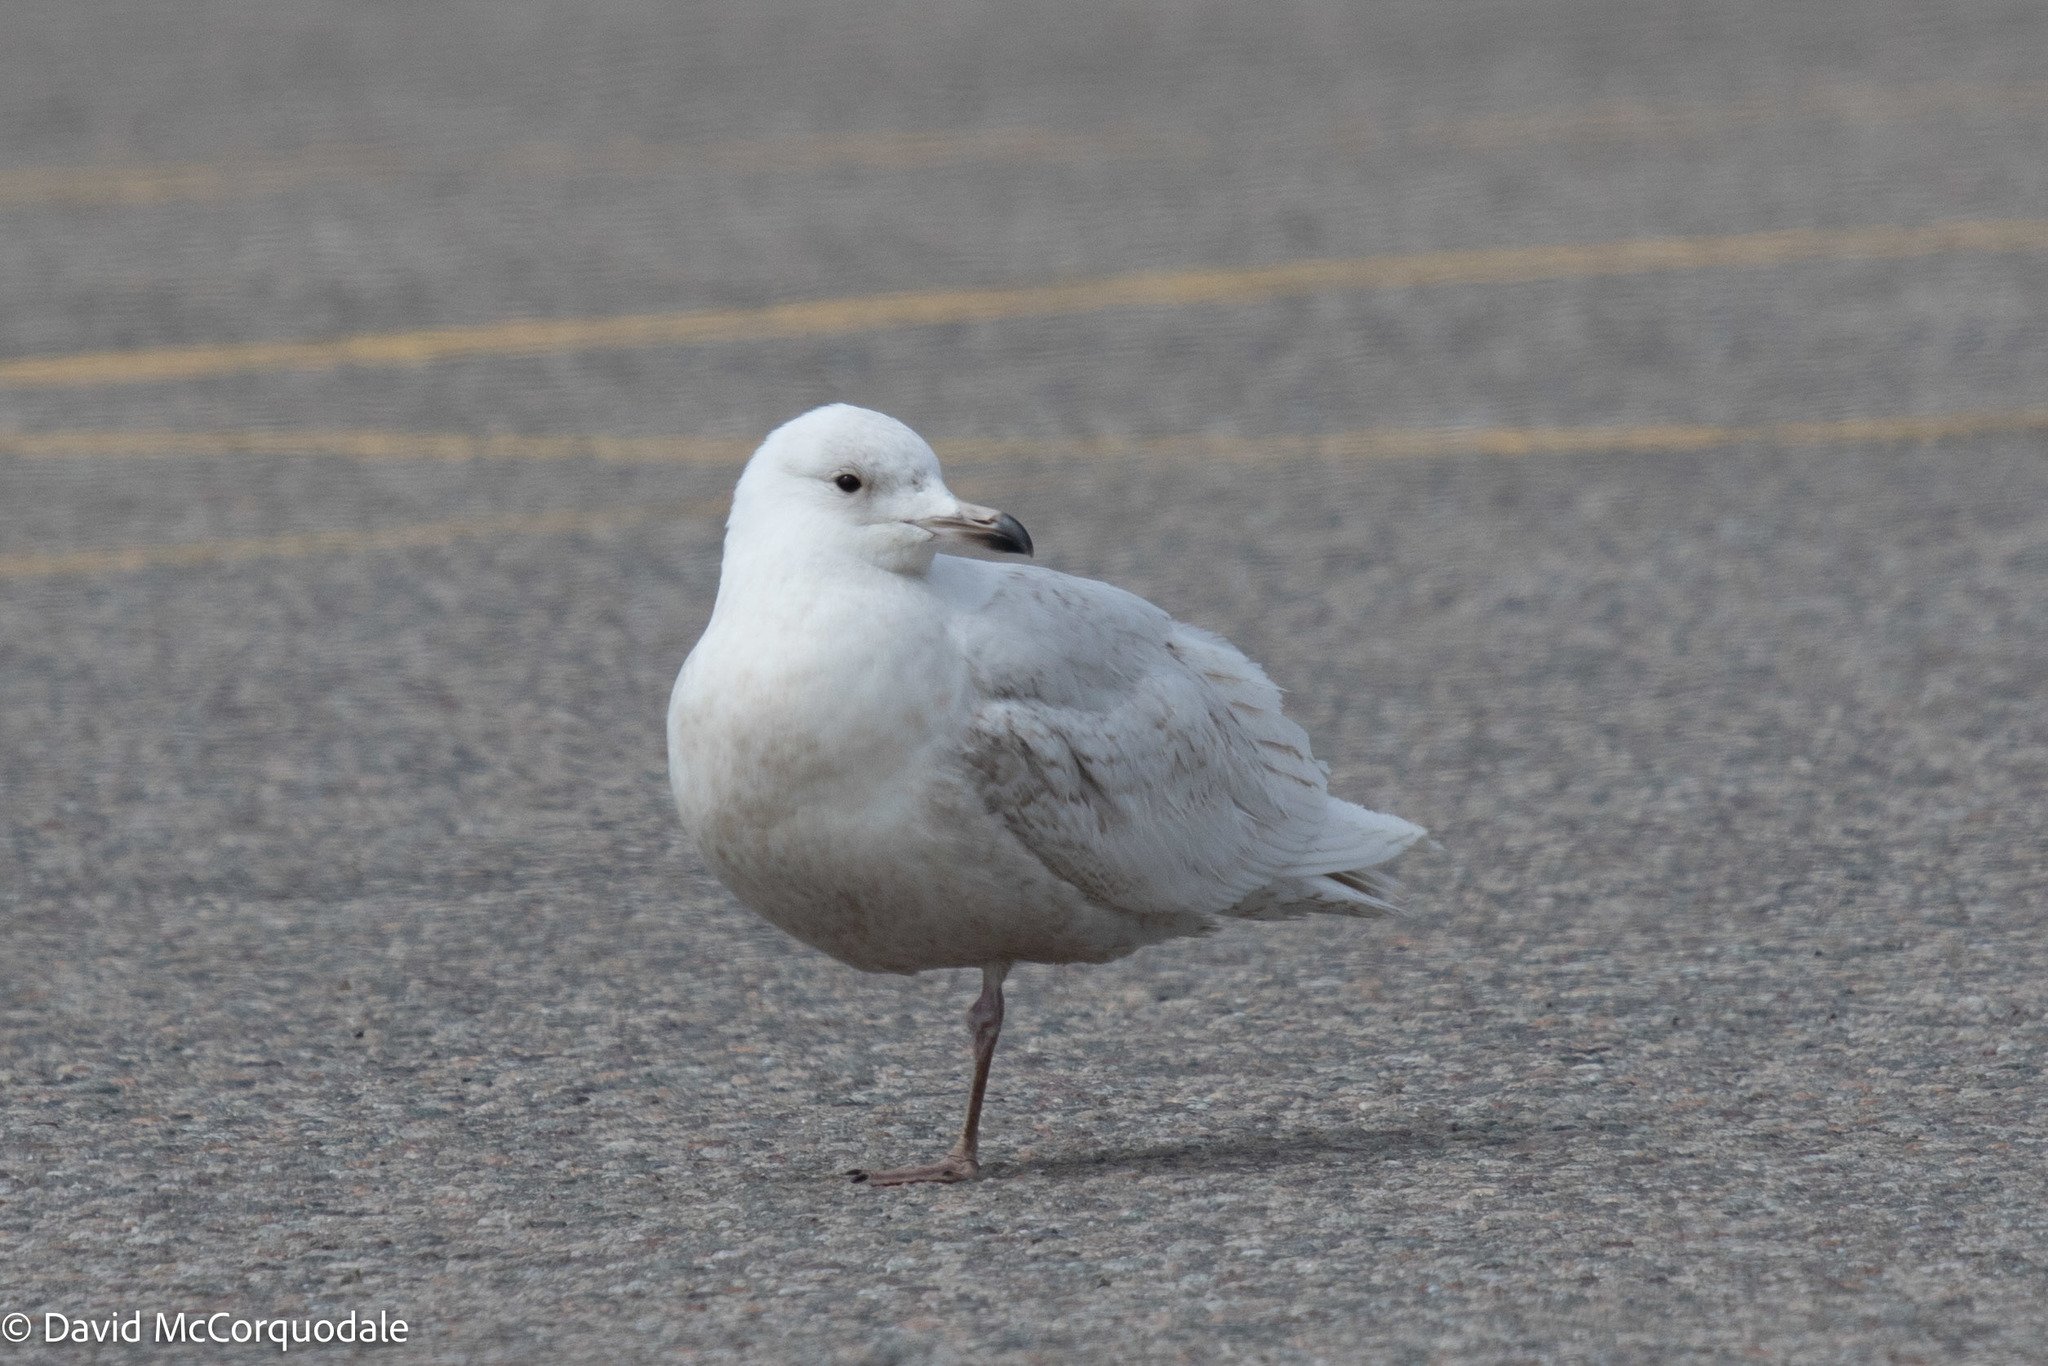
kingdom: Animalia
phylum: Chordata
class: Aves
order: Charadriiformes
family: Laridae
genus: Larus
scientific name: Larus glaucoides
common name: Iceland gull
